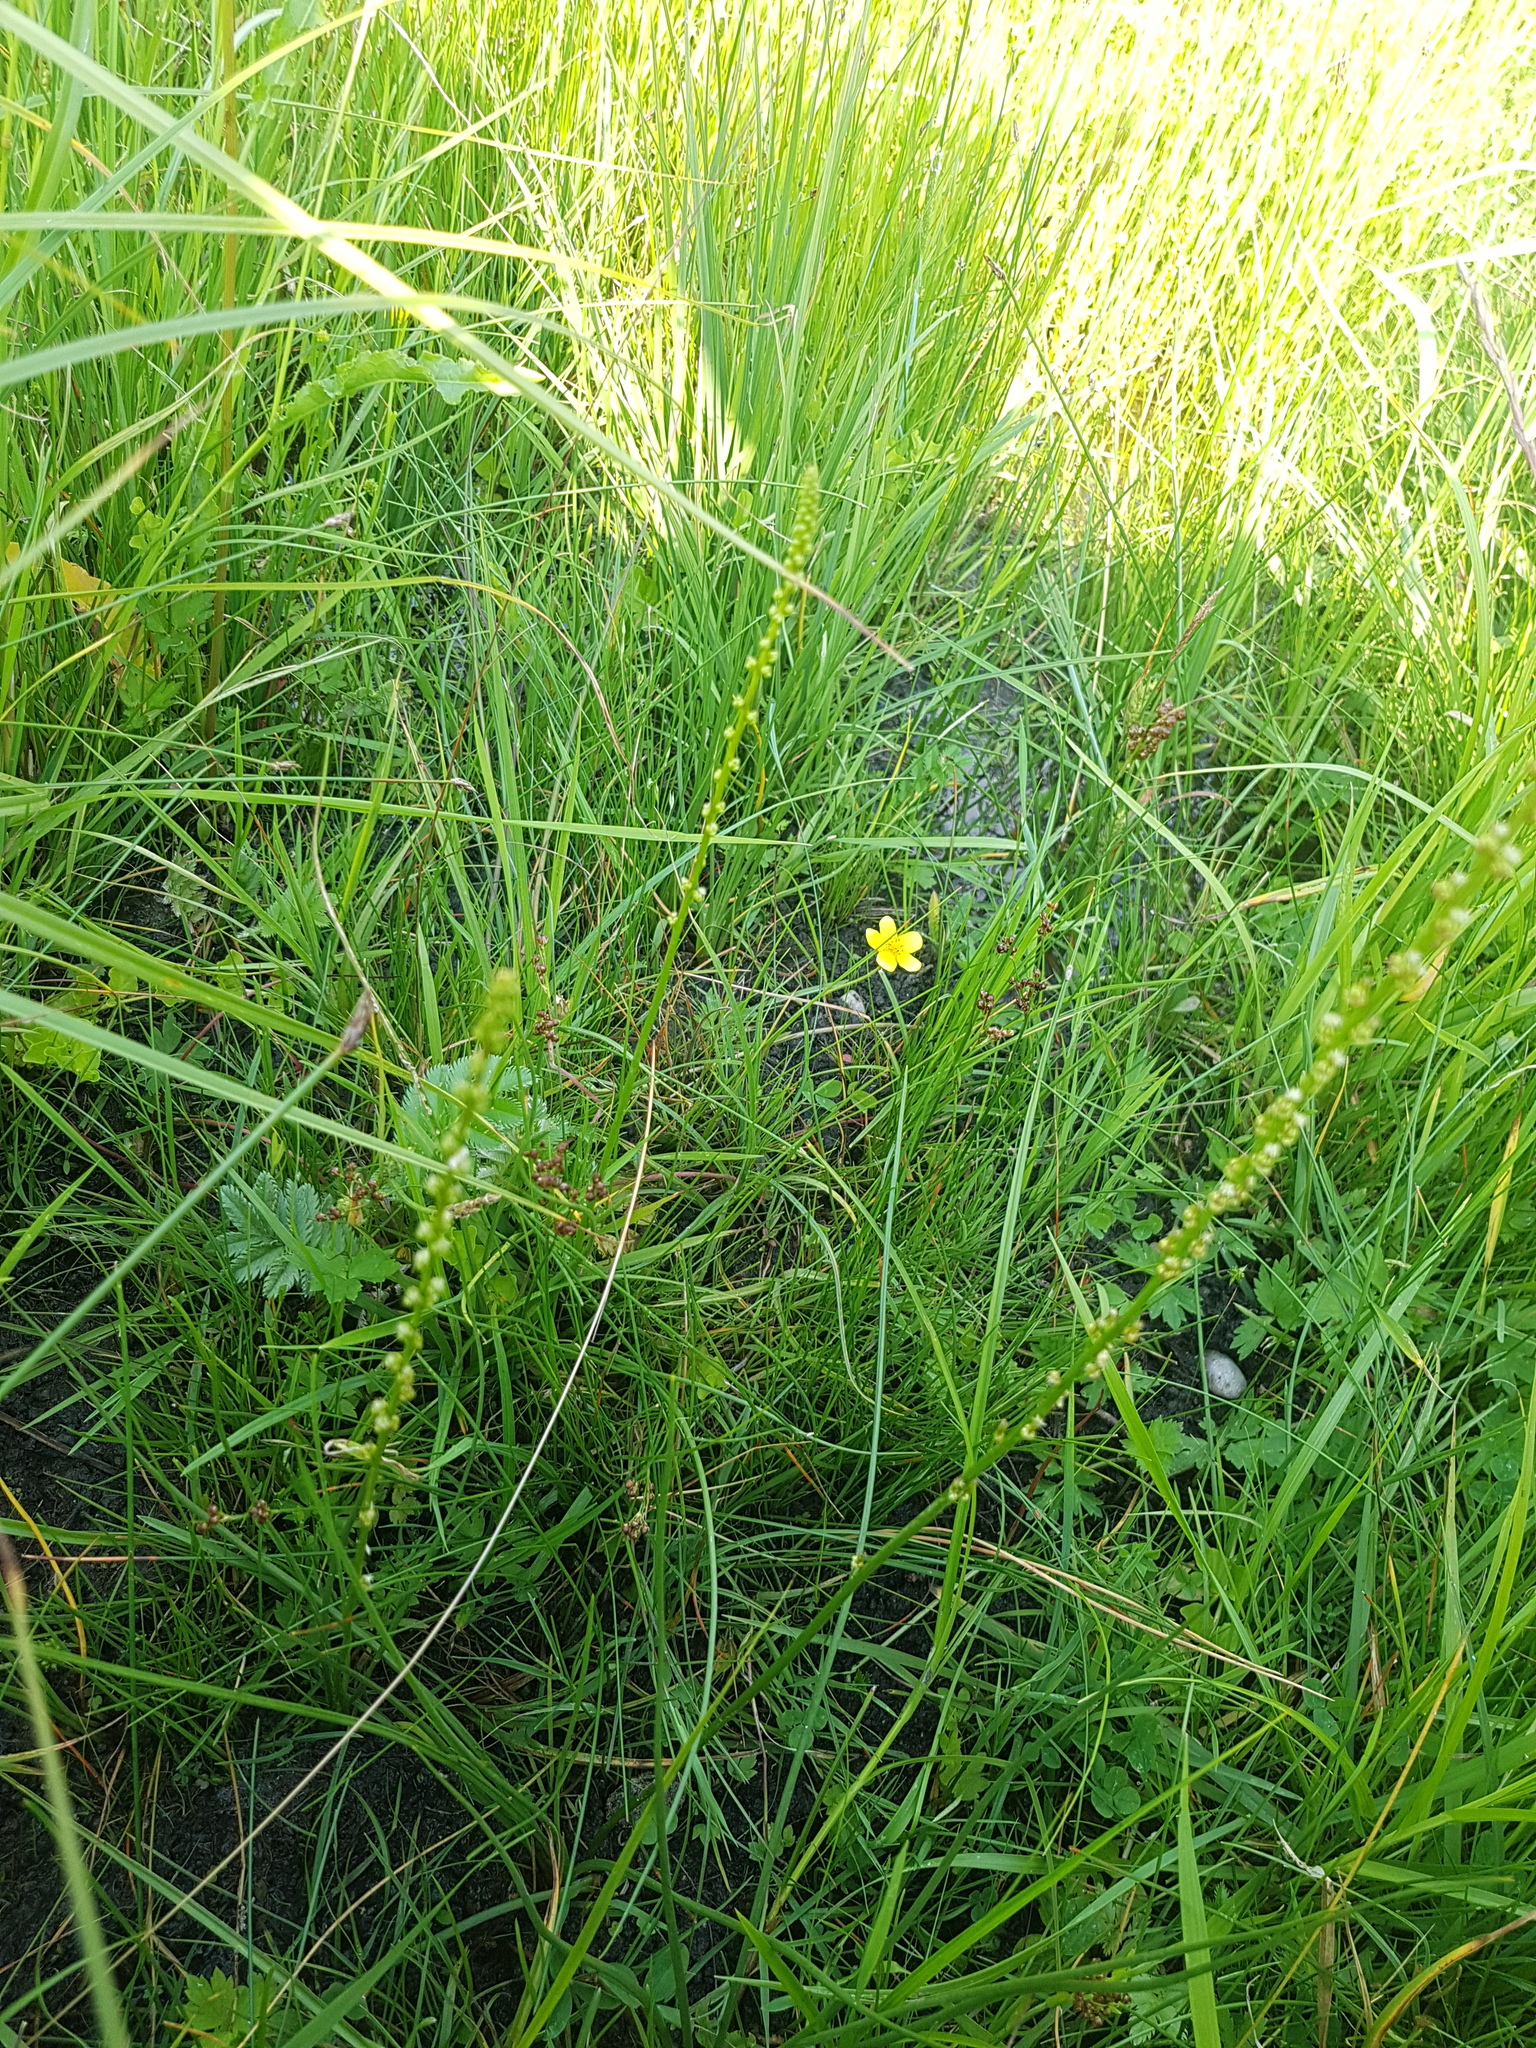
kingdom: Plantae
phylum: Tracheophyta
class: Liliopsida
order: Alismatales
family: Juncaginaceae
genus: Triglochin
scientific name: Triglochin palustris
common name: Marsh arrowgrass
